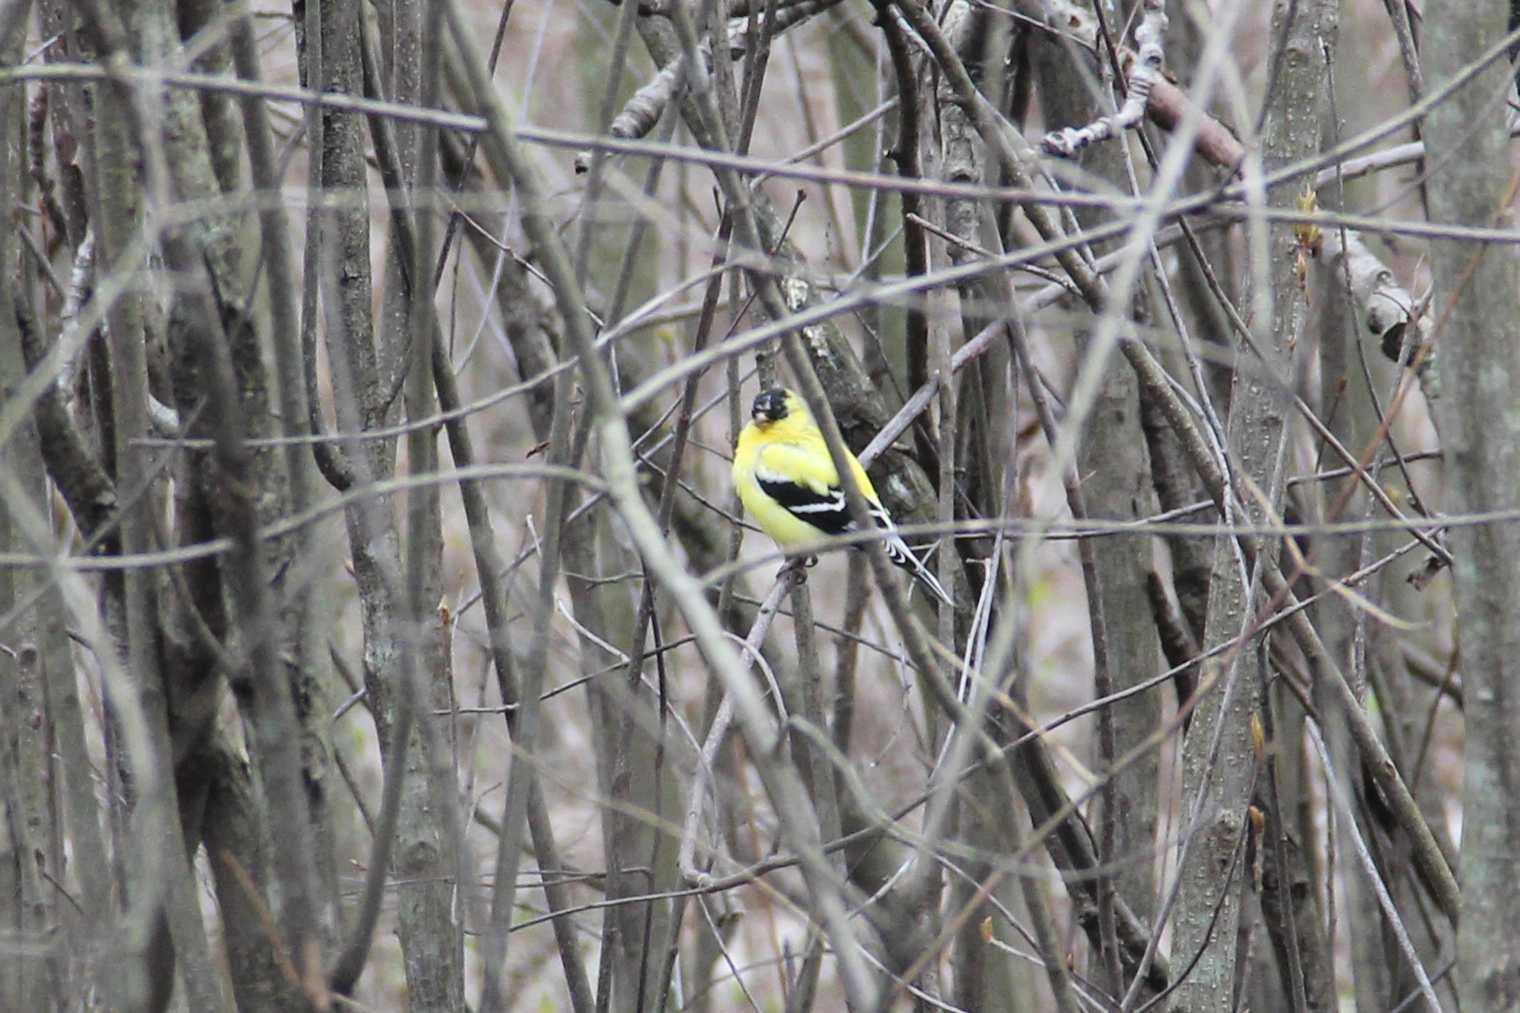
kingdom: Animalia
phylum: Chordata
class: Aves
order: Passeriformes
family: Fringillidae
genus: Spinus
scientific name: Spinus tristis
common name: American goldfinch
